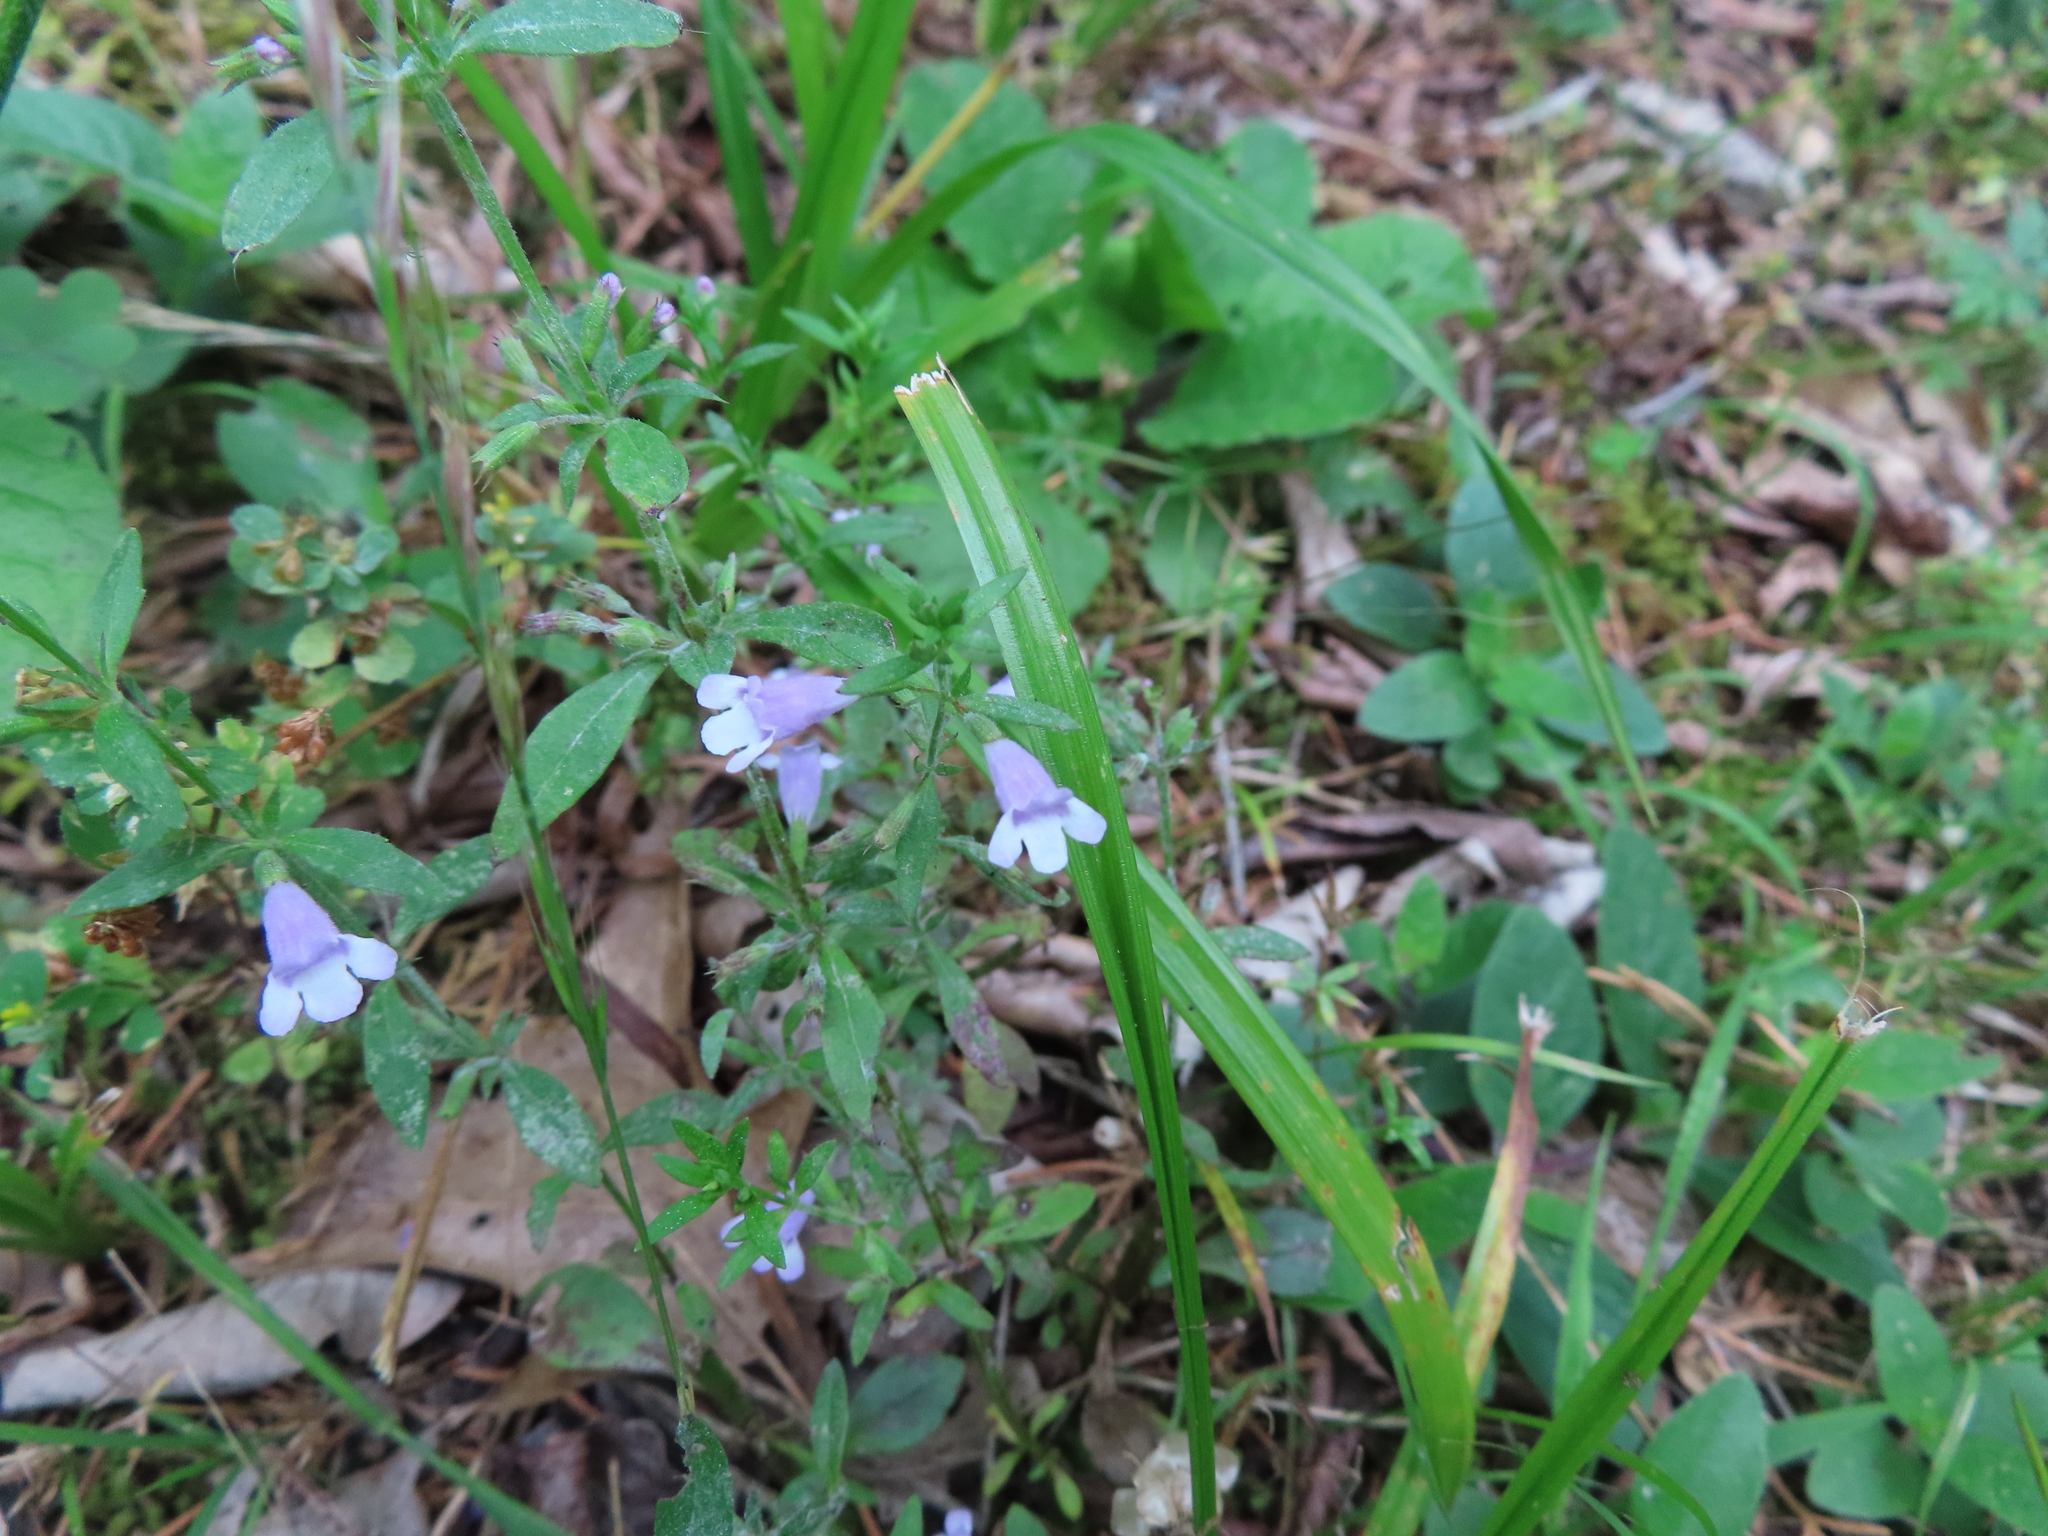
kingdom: Plantae
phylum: Tracheophyta
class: Magnoliopsida
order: Lamiales
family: Mazaceae
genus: Mazus
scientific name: Mazus pumilus
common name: Japanese mazus
